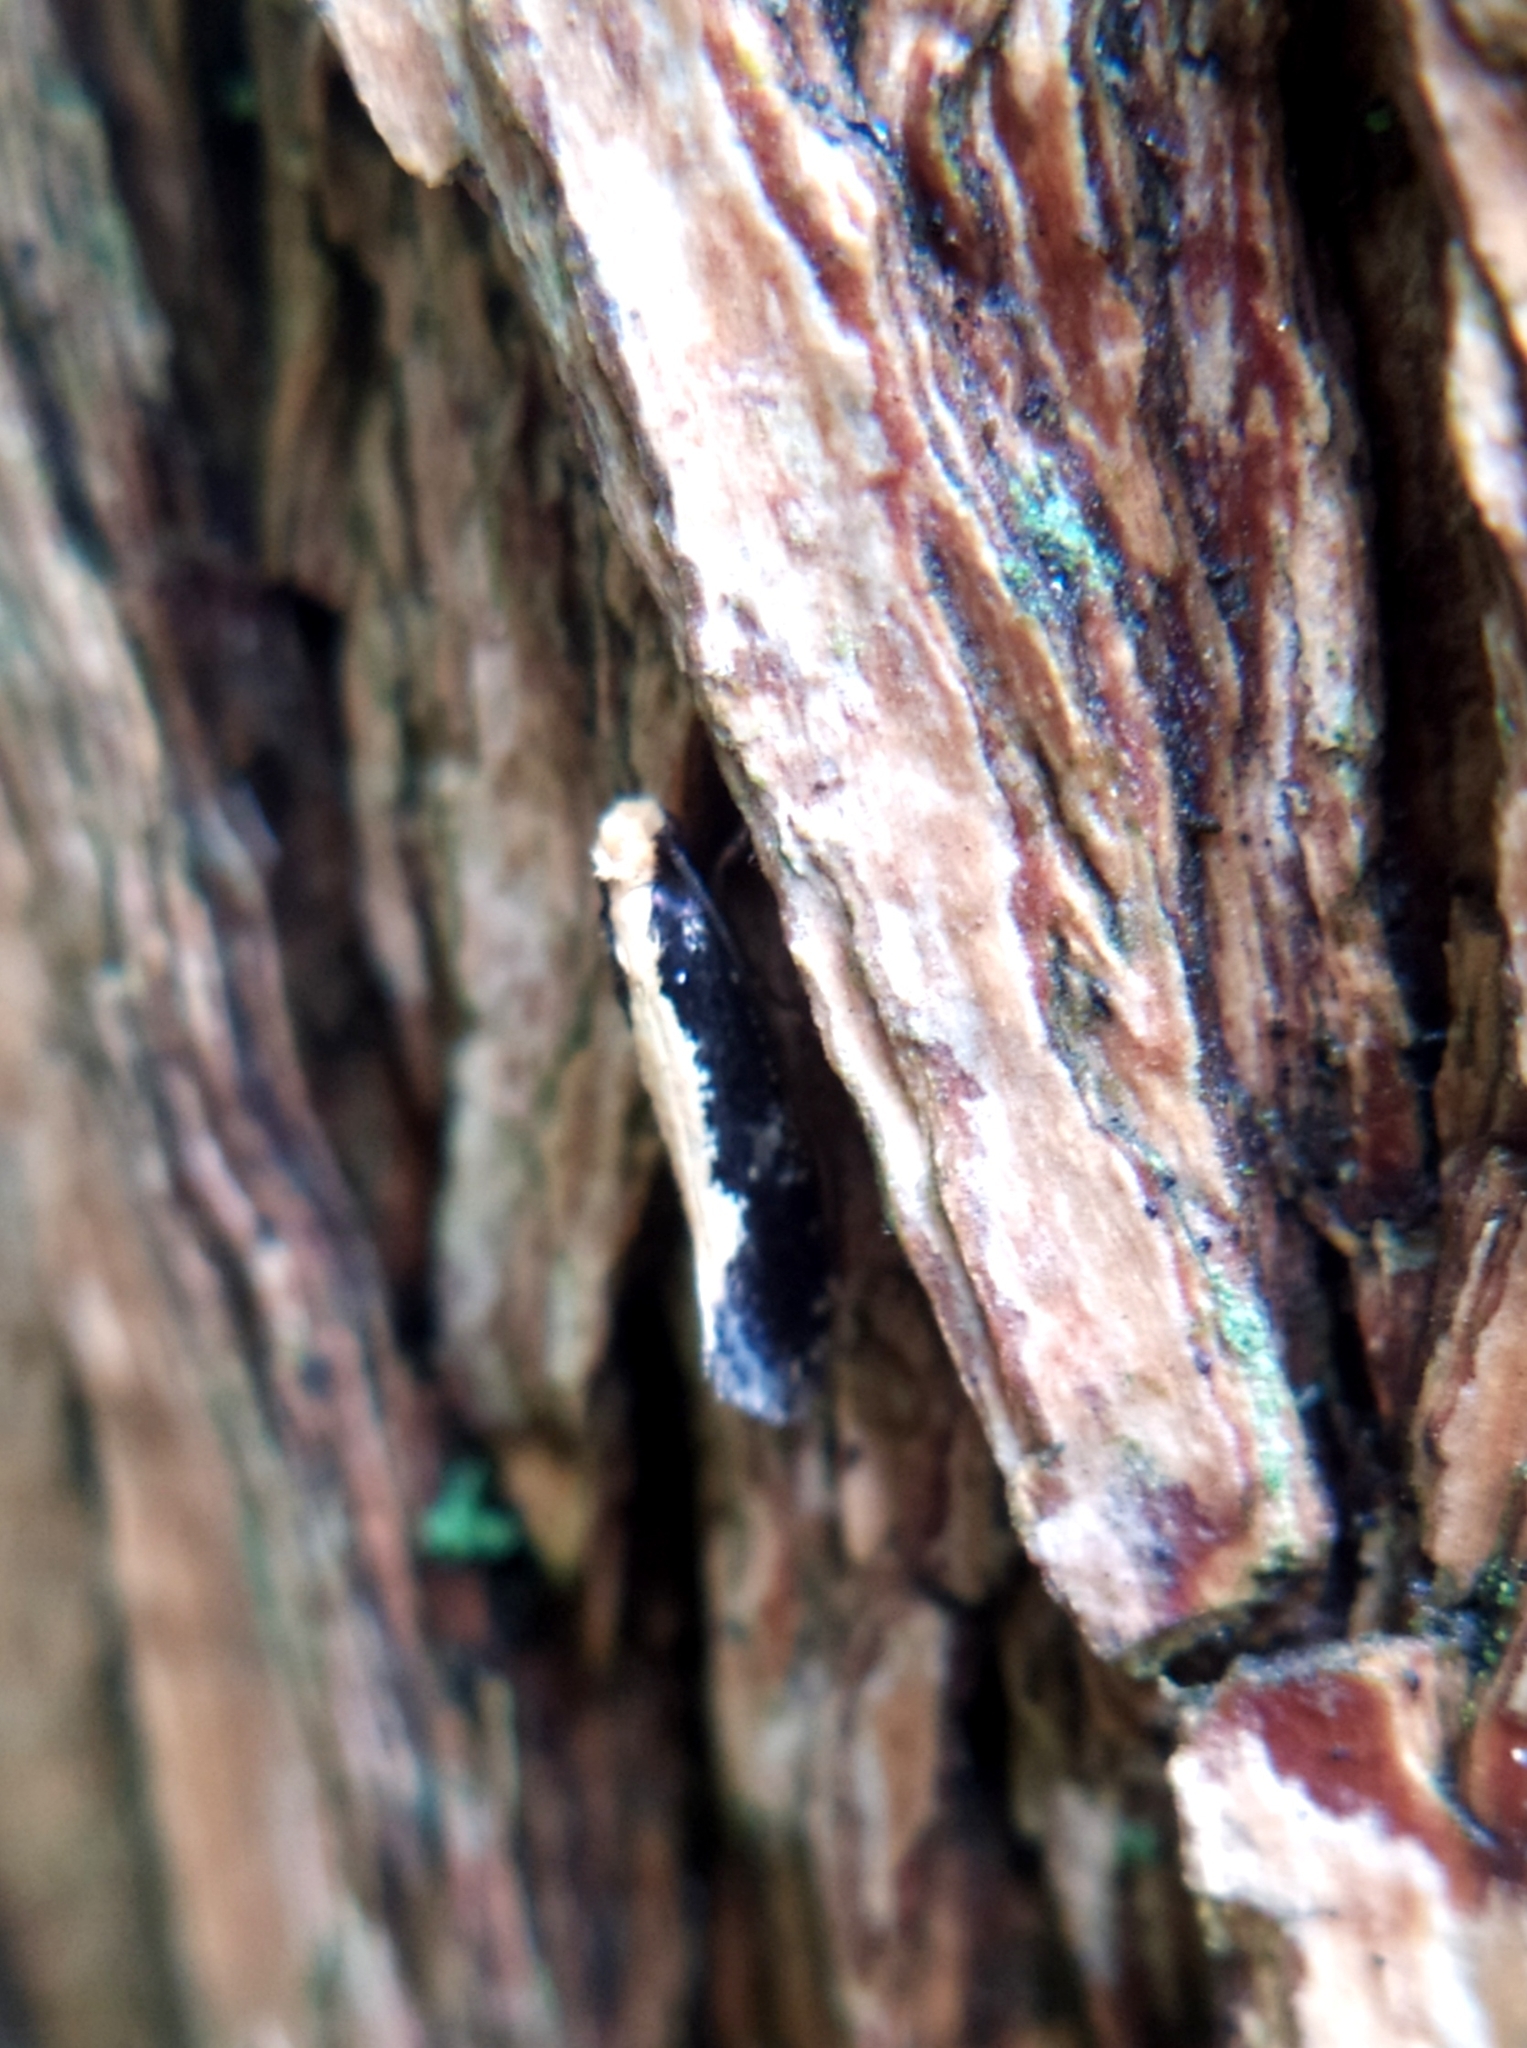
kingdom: Animalia
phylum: Arthropoda
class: Insecta
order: Lepidoptera
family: Tineidae
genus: Monopis
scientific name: Monopis obviella
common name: Tineid moth
